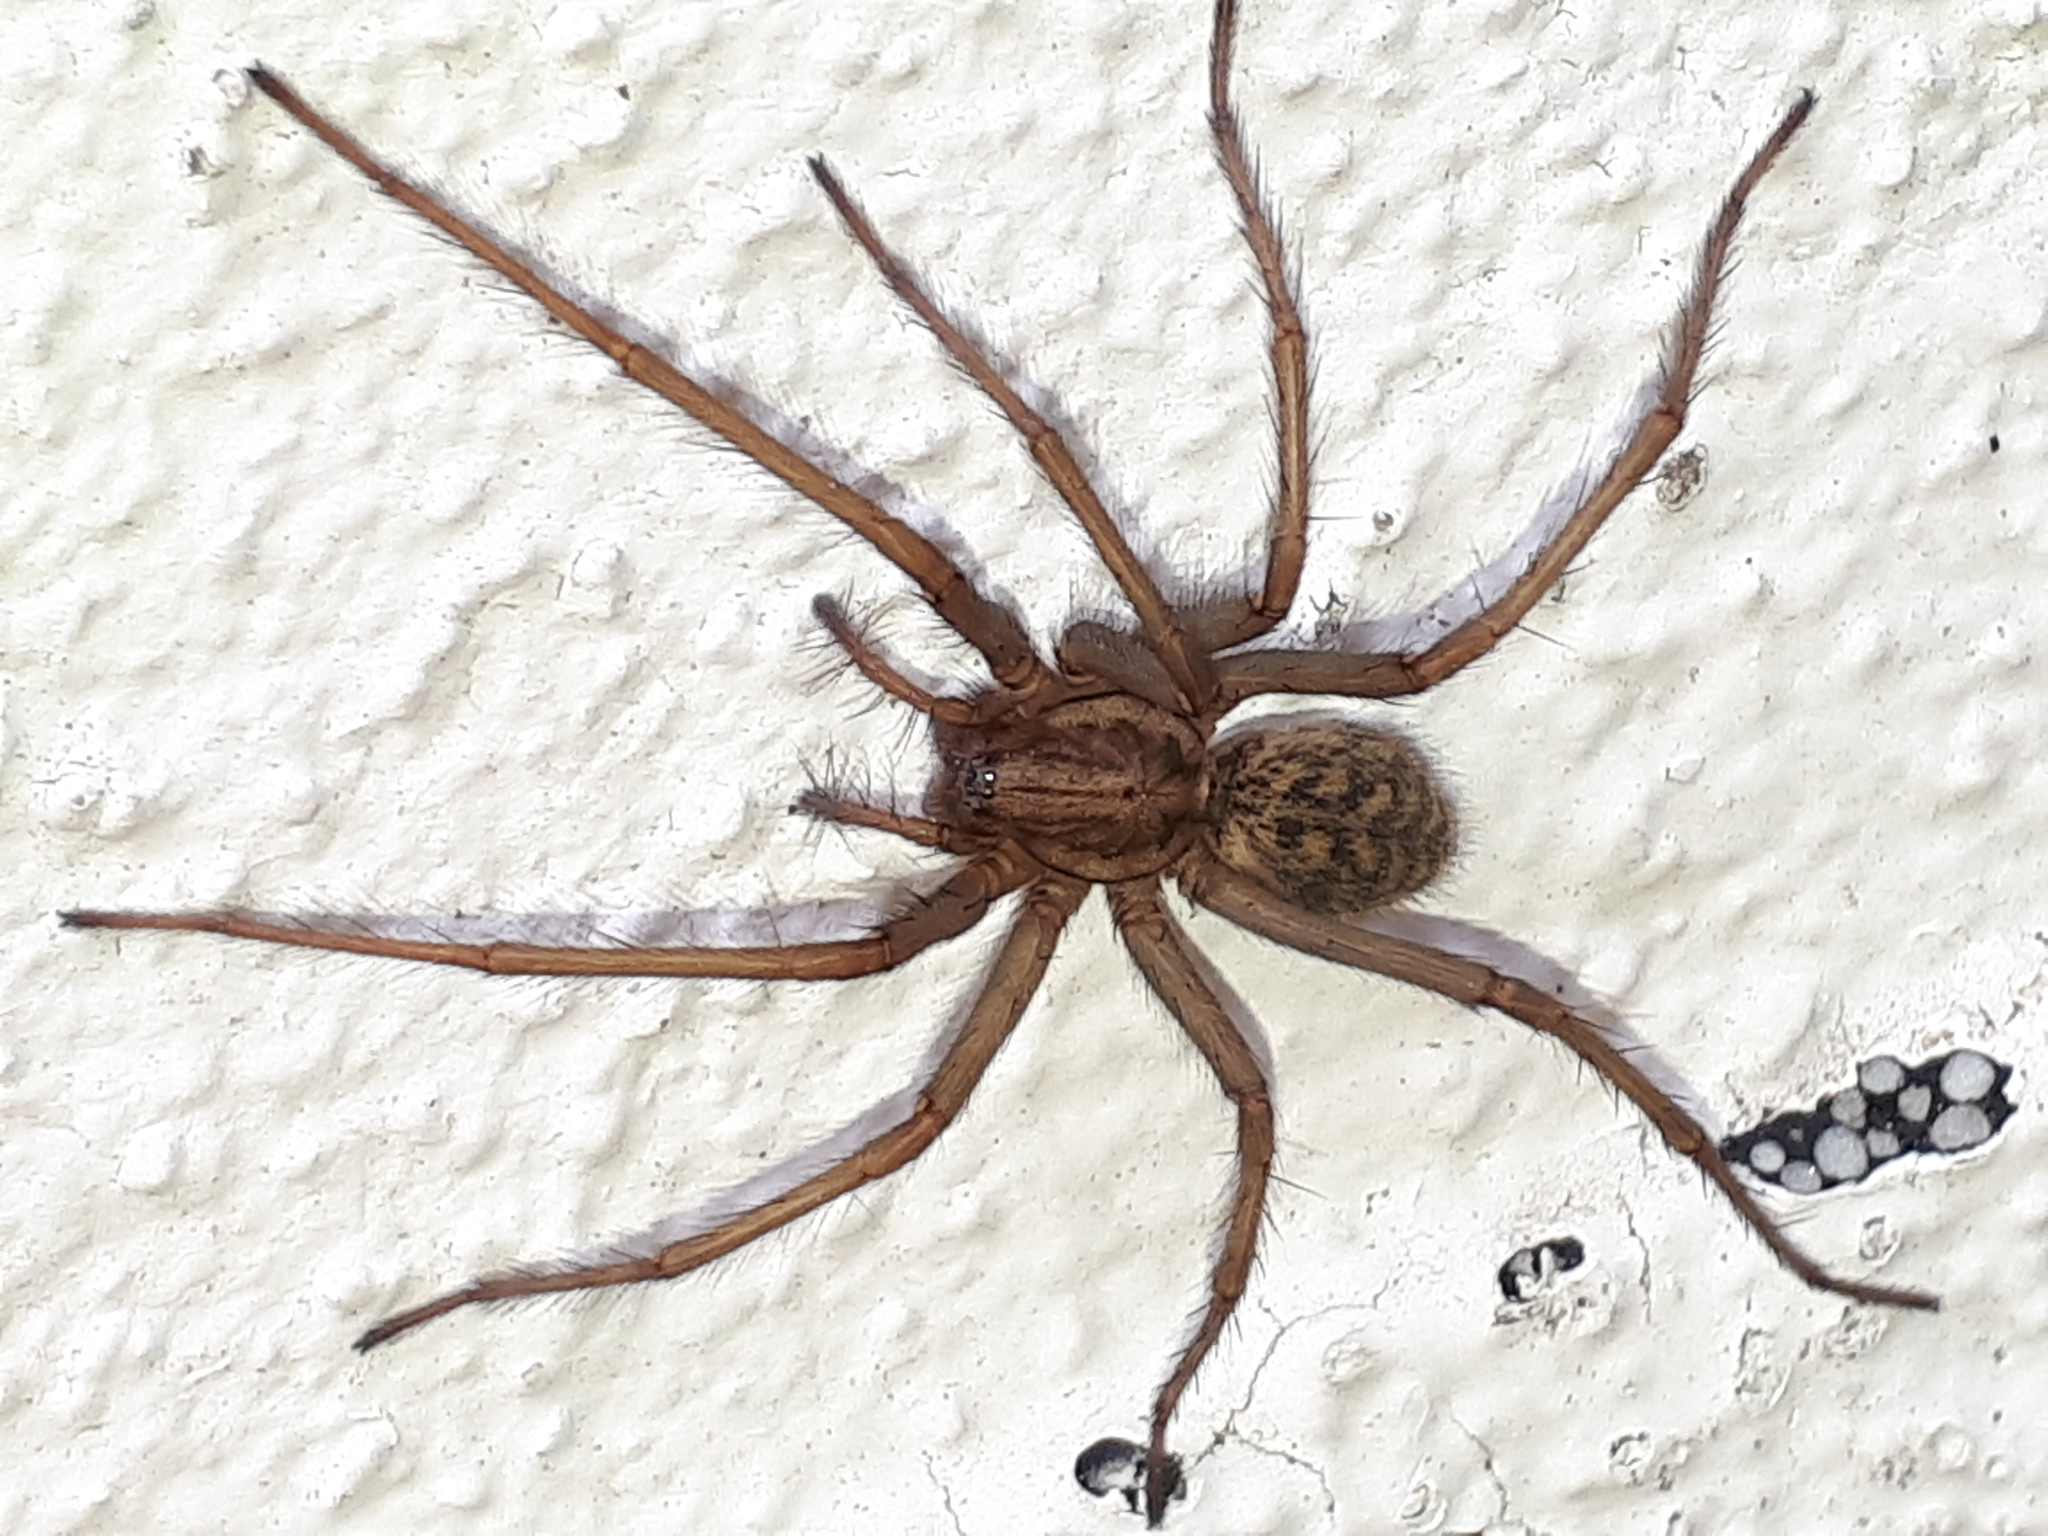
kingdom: Animalia
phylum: Arthropoda
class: Arachnida
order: Araneae
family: Agelenidae
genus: Eratigena
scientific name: Eratigena atrica
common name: Giant house spider
